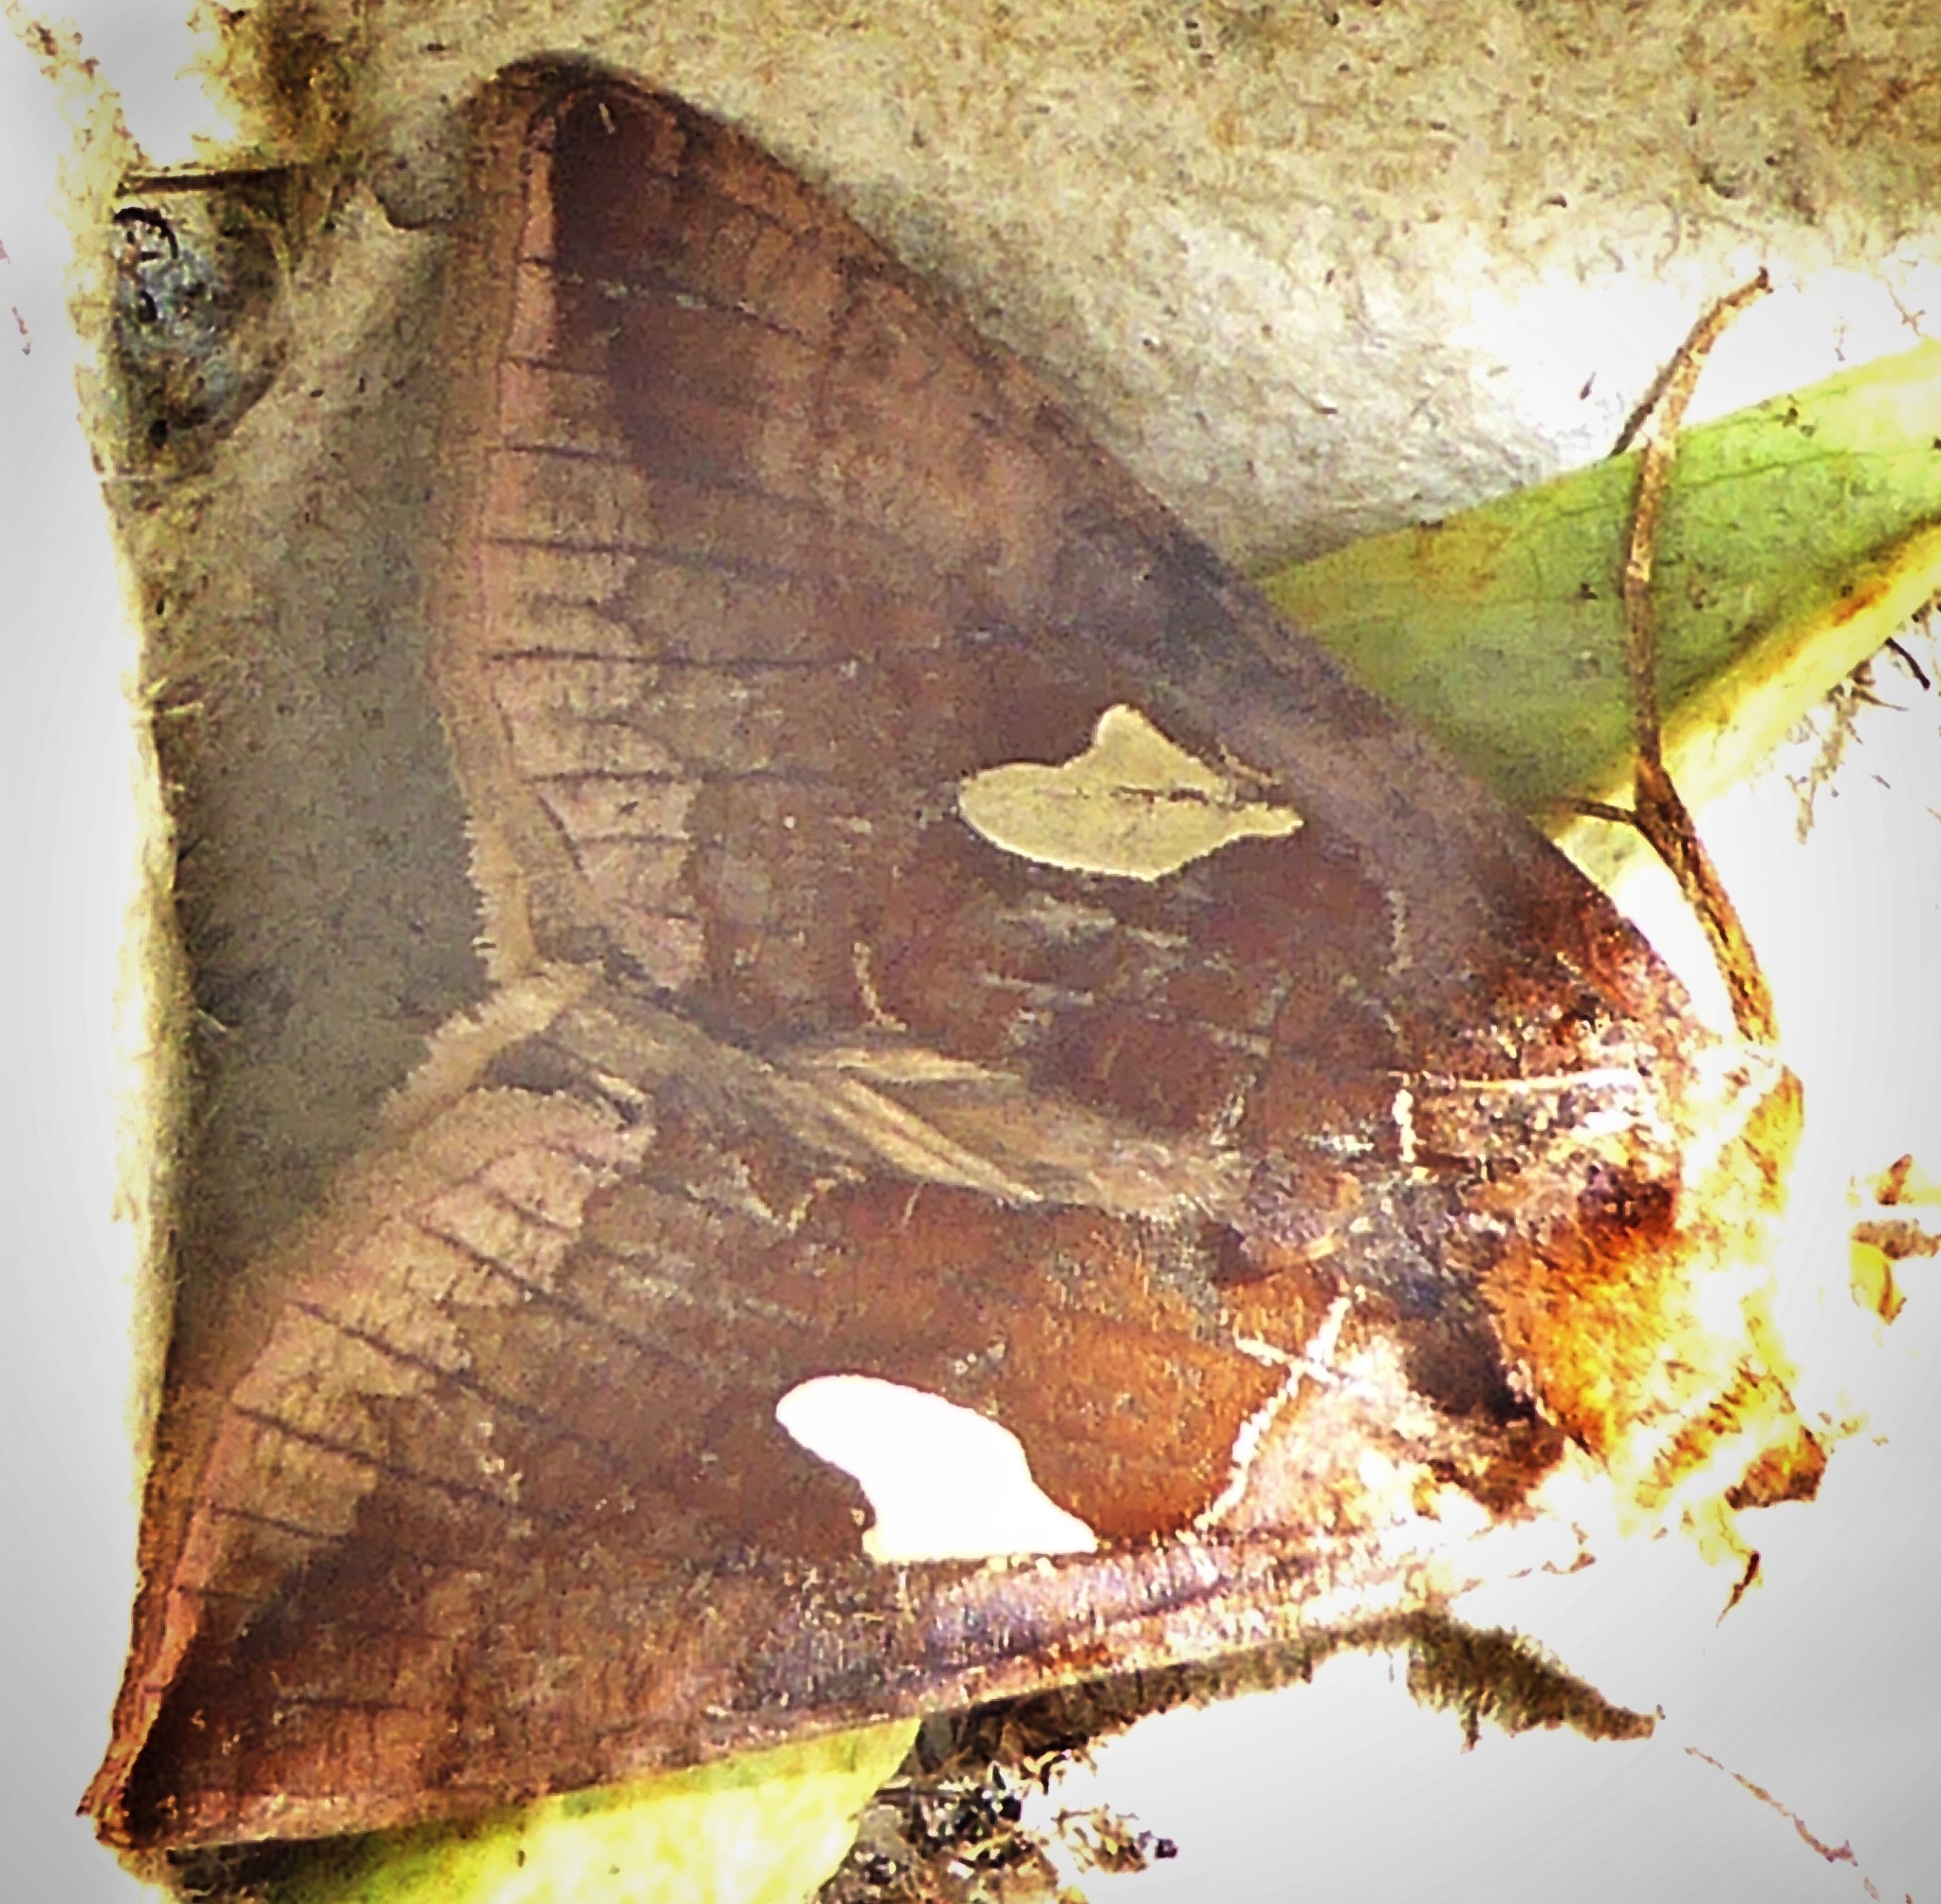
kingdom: Animalia
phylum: Arthropoda
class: Insecta
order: Lepidoptera
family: Noctuidae
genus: Autographa
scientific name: Autographa bractea
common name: Gold spangle
